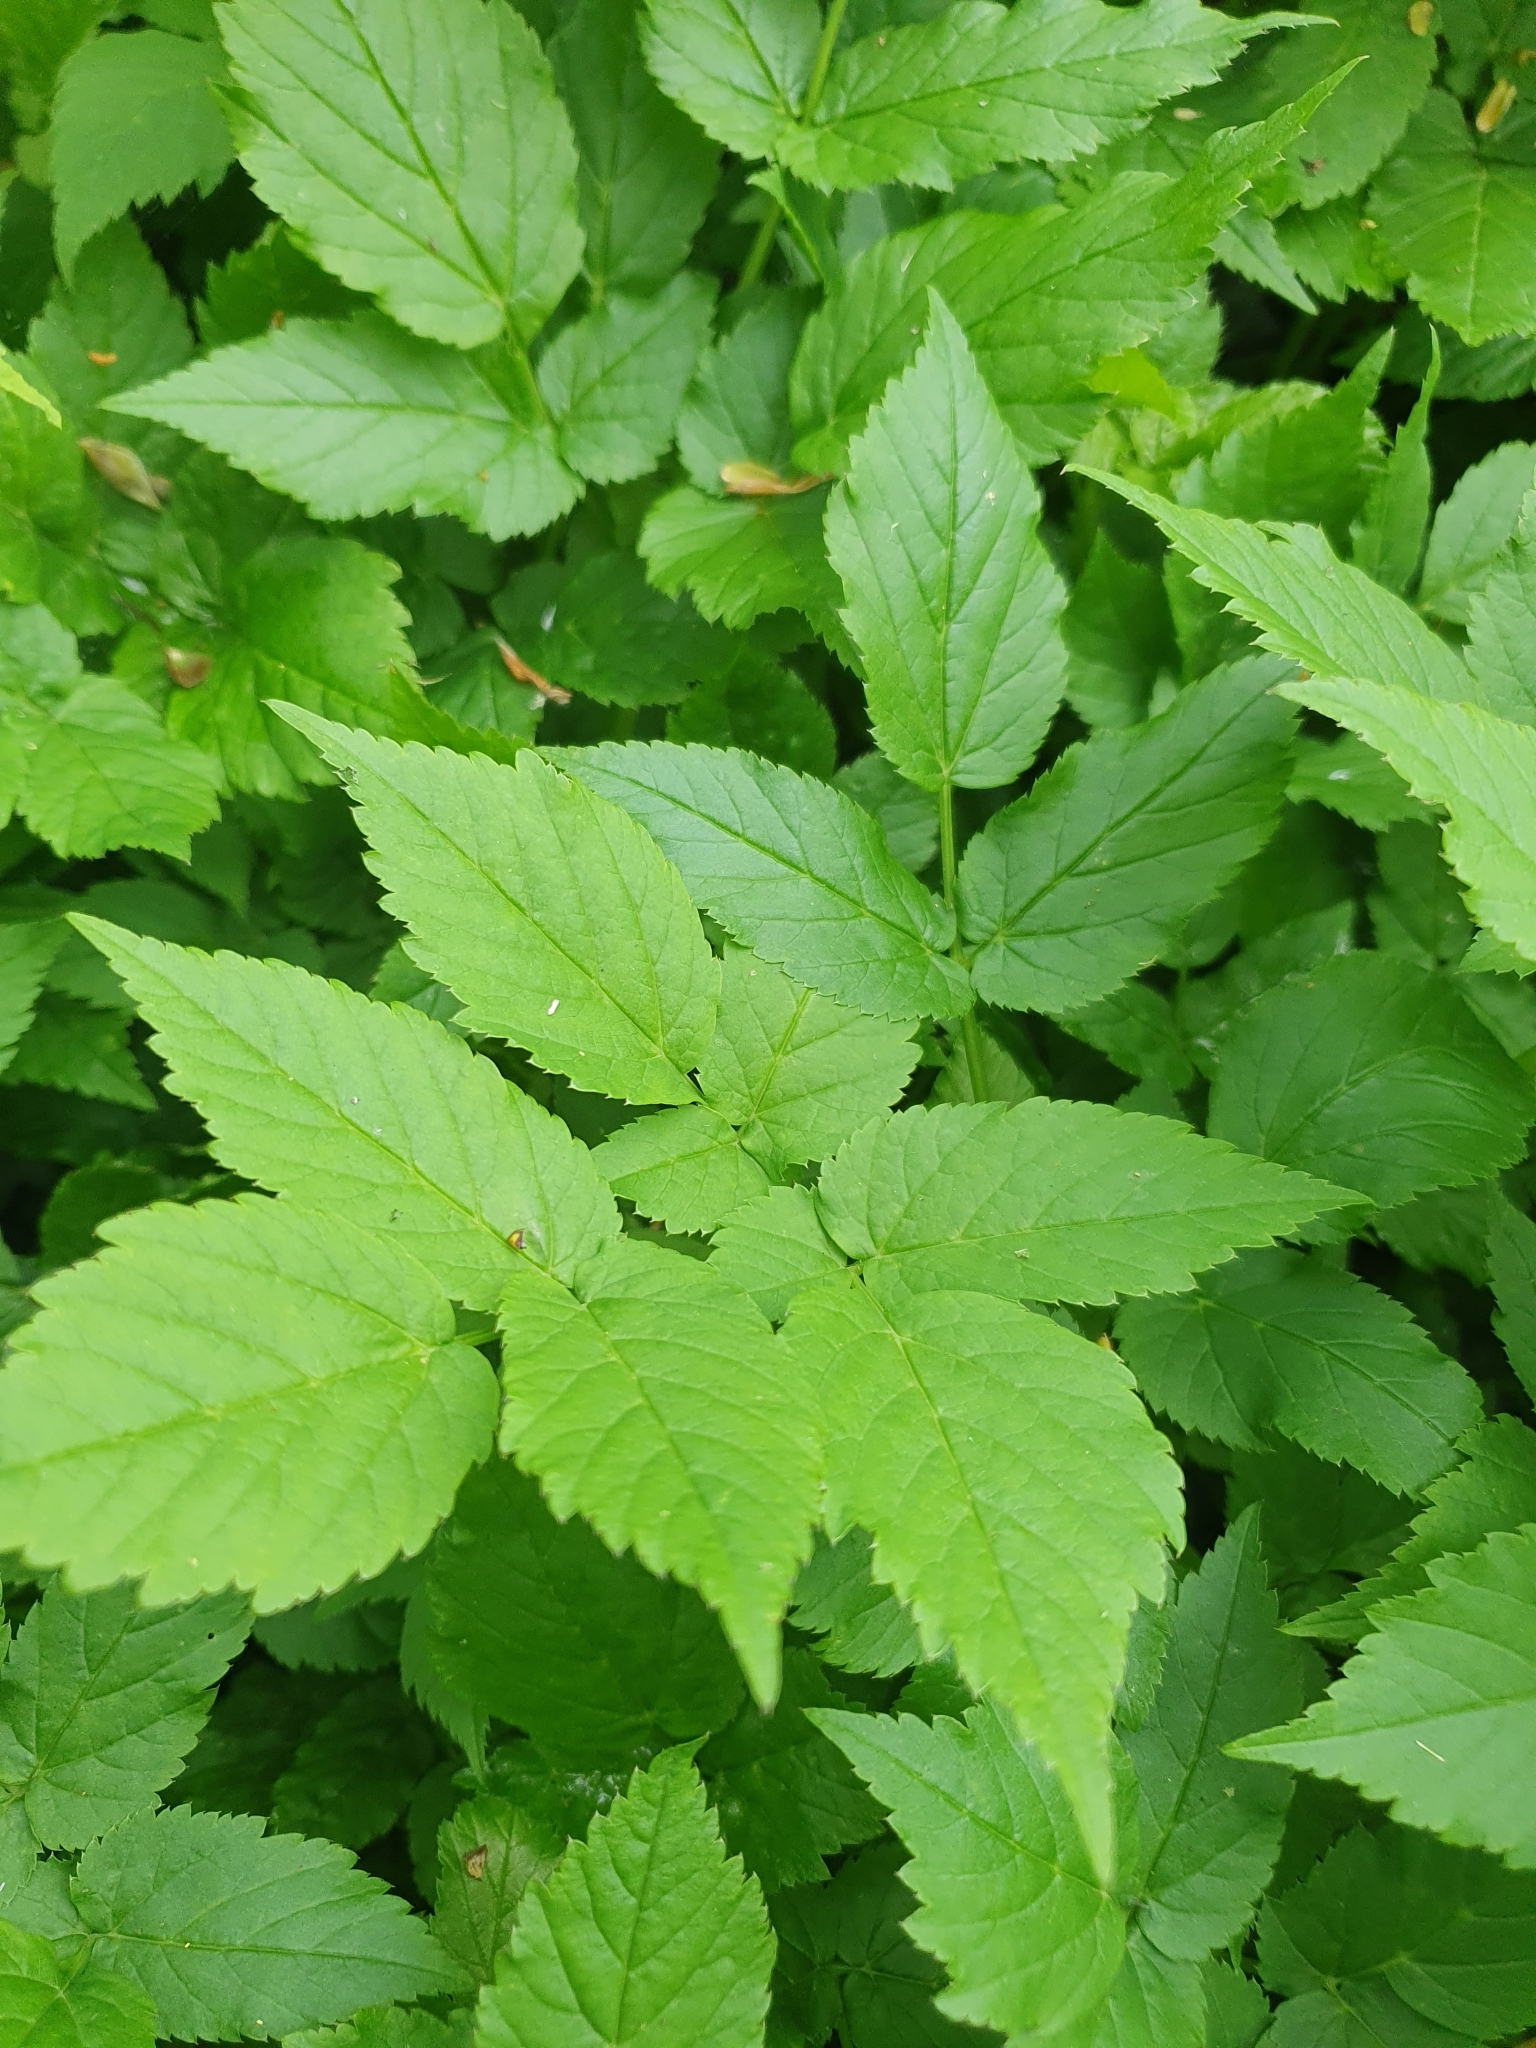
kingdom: Plantae
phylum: Tracheophyta
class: Magnoliopsida
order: Apiales
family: Apiaceae
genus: Aegopodium
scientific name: Aegopodium podagraria
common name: Ground-elder
